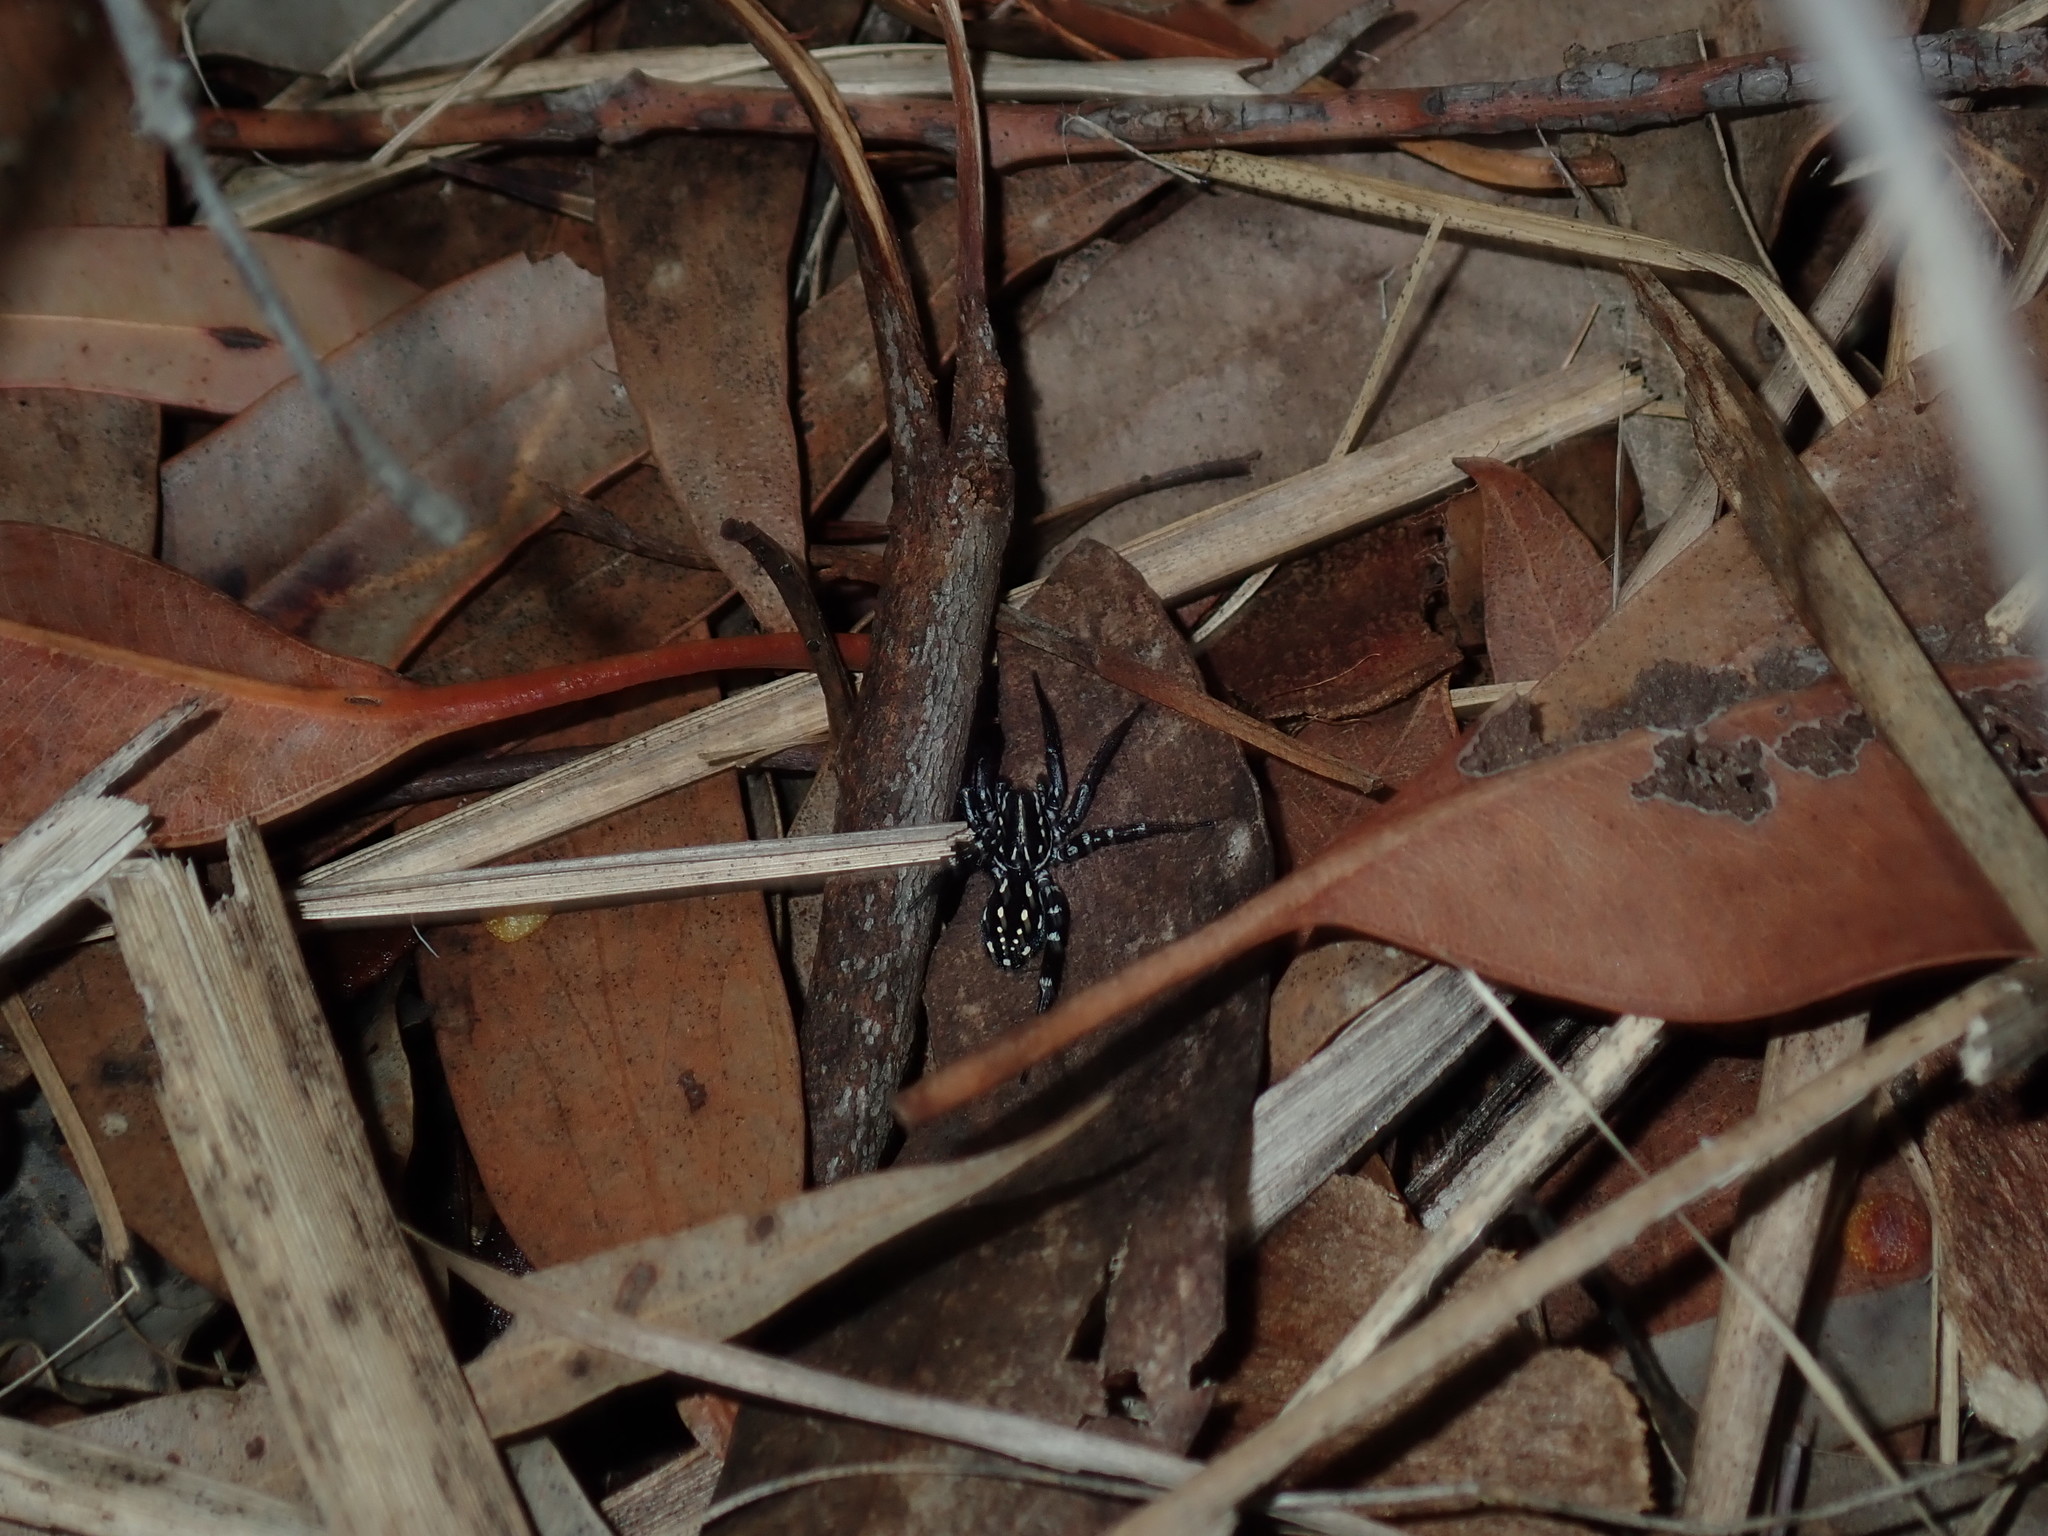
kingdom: Animalia
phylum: Arthropoda
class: Arachnida
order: Araneae
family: Corinnidae
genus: Nyssus
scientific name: Nyssus albopunctatus
